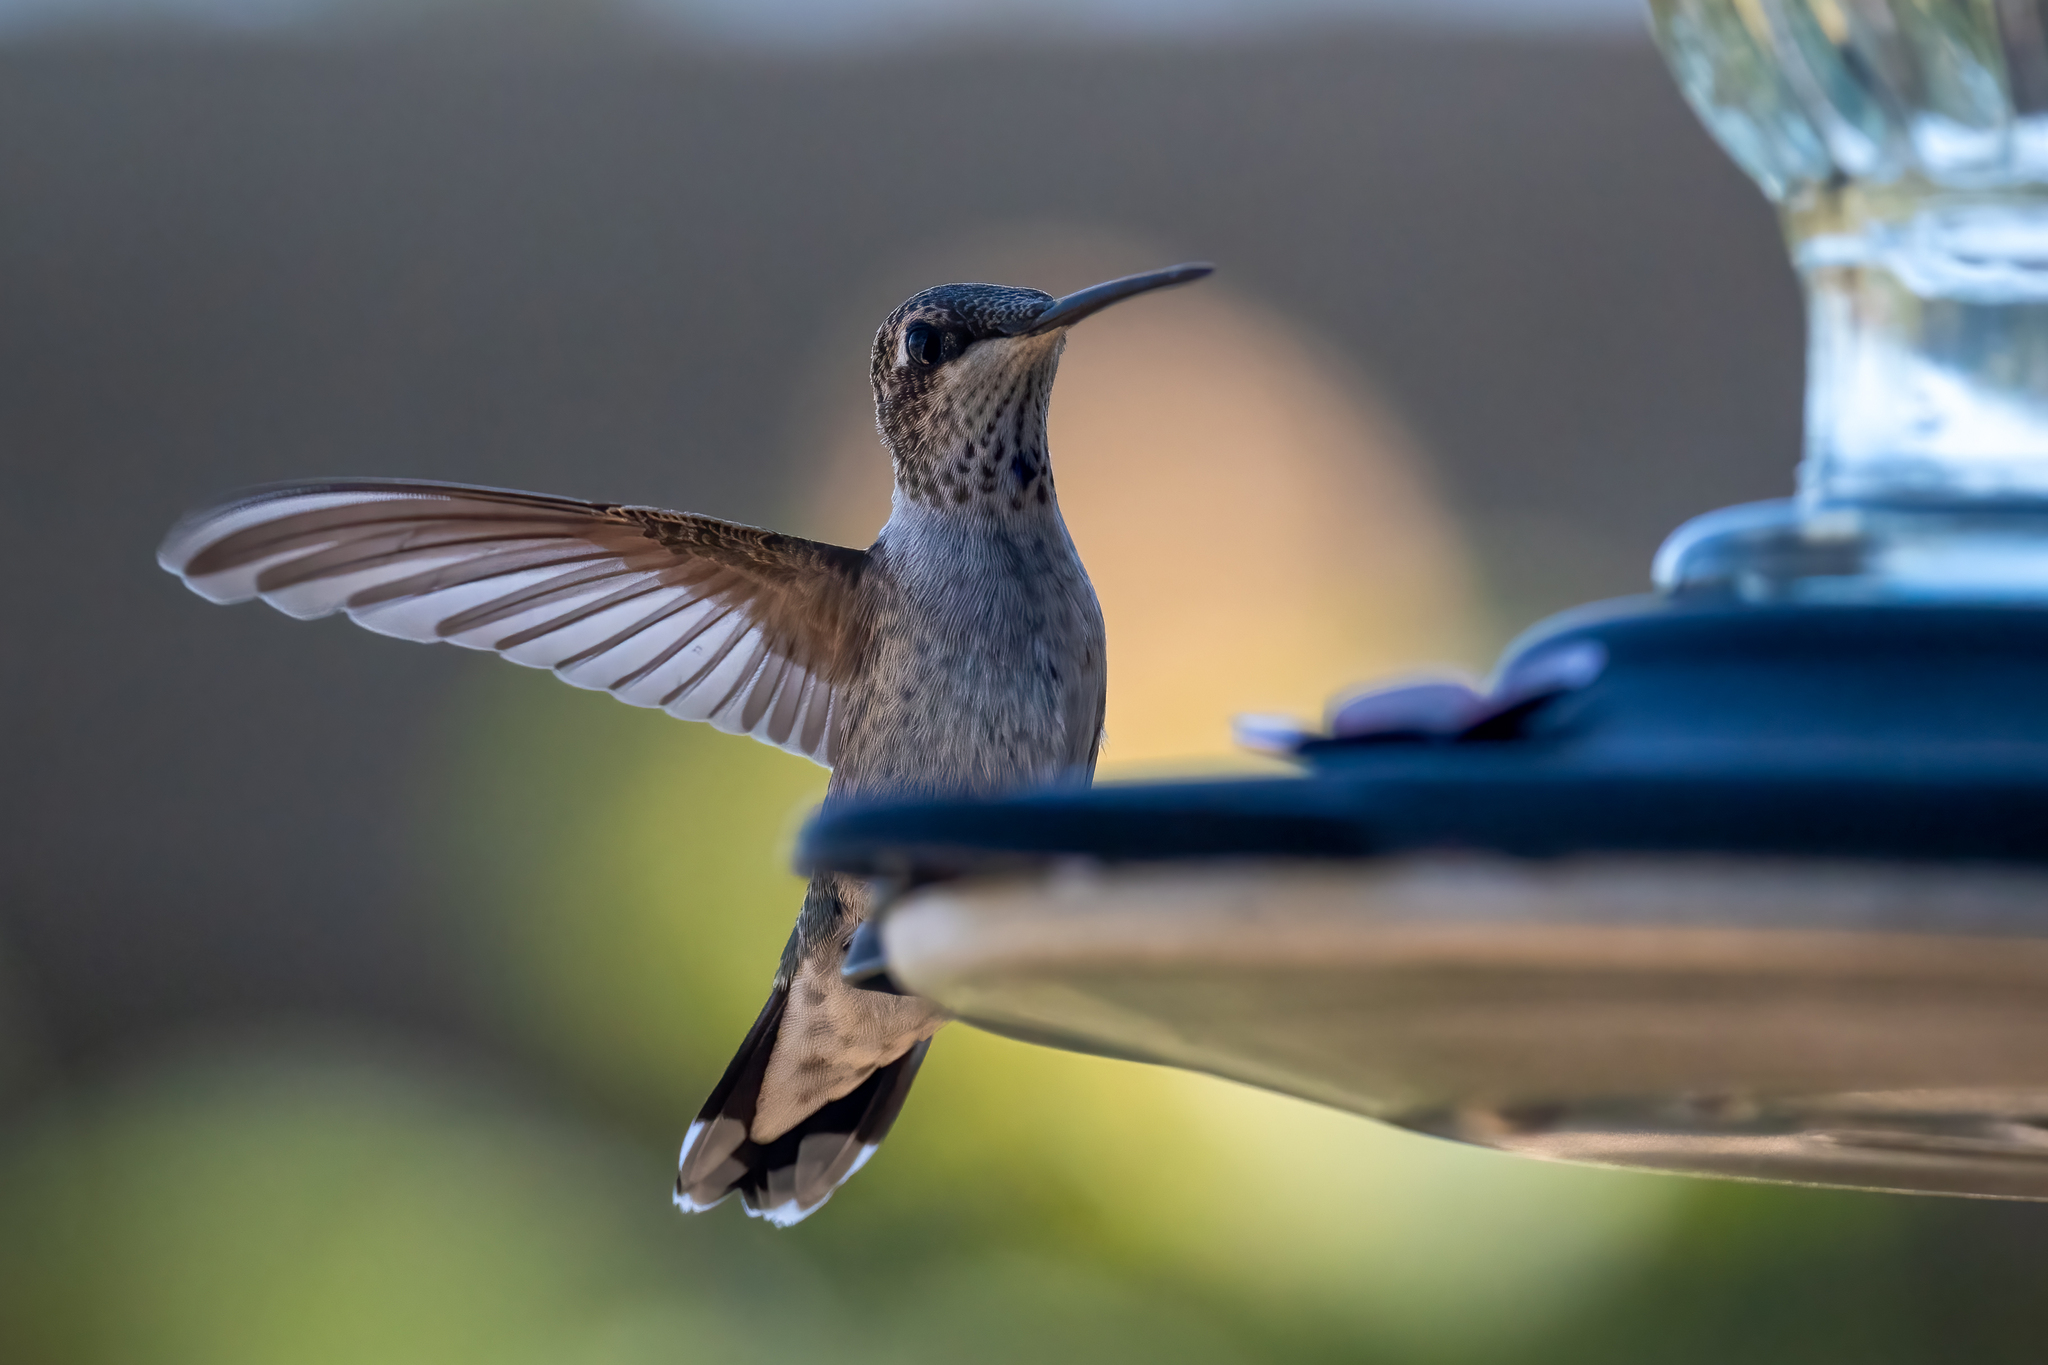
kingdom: Animalia
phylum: Chordata
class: Aves
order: Apodiformes
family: Trochilidae
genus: Archilochus
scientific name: Archilochus alexandri
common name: Black-chinned hummingbird
